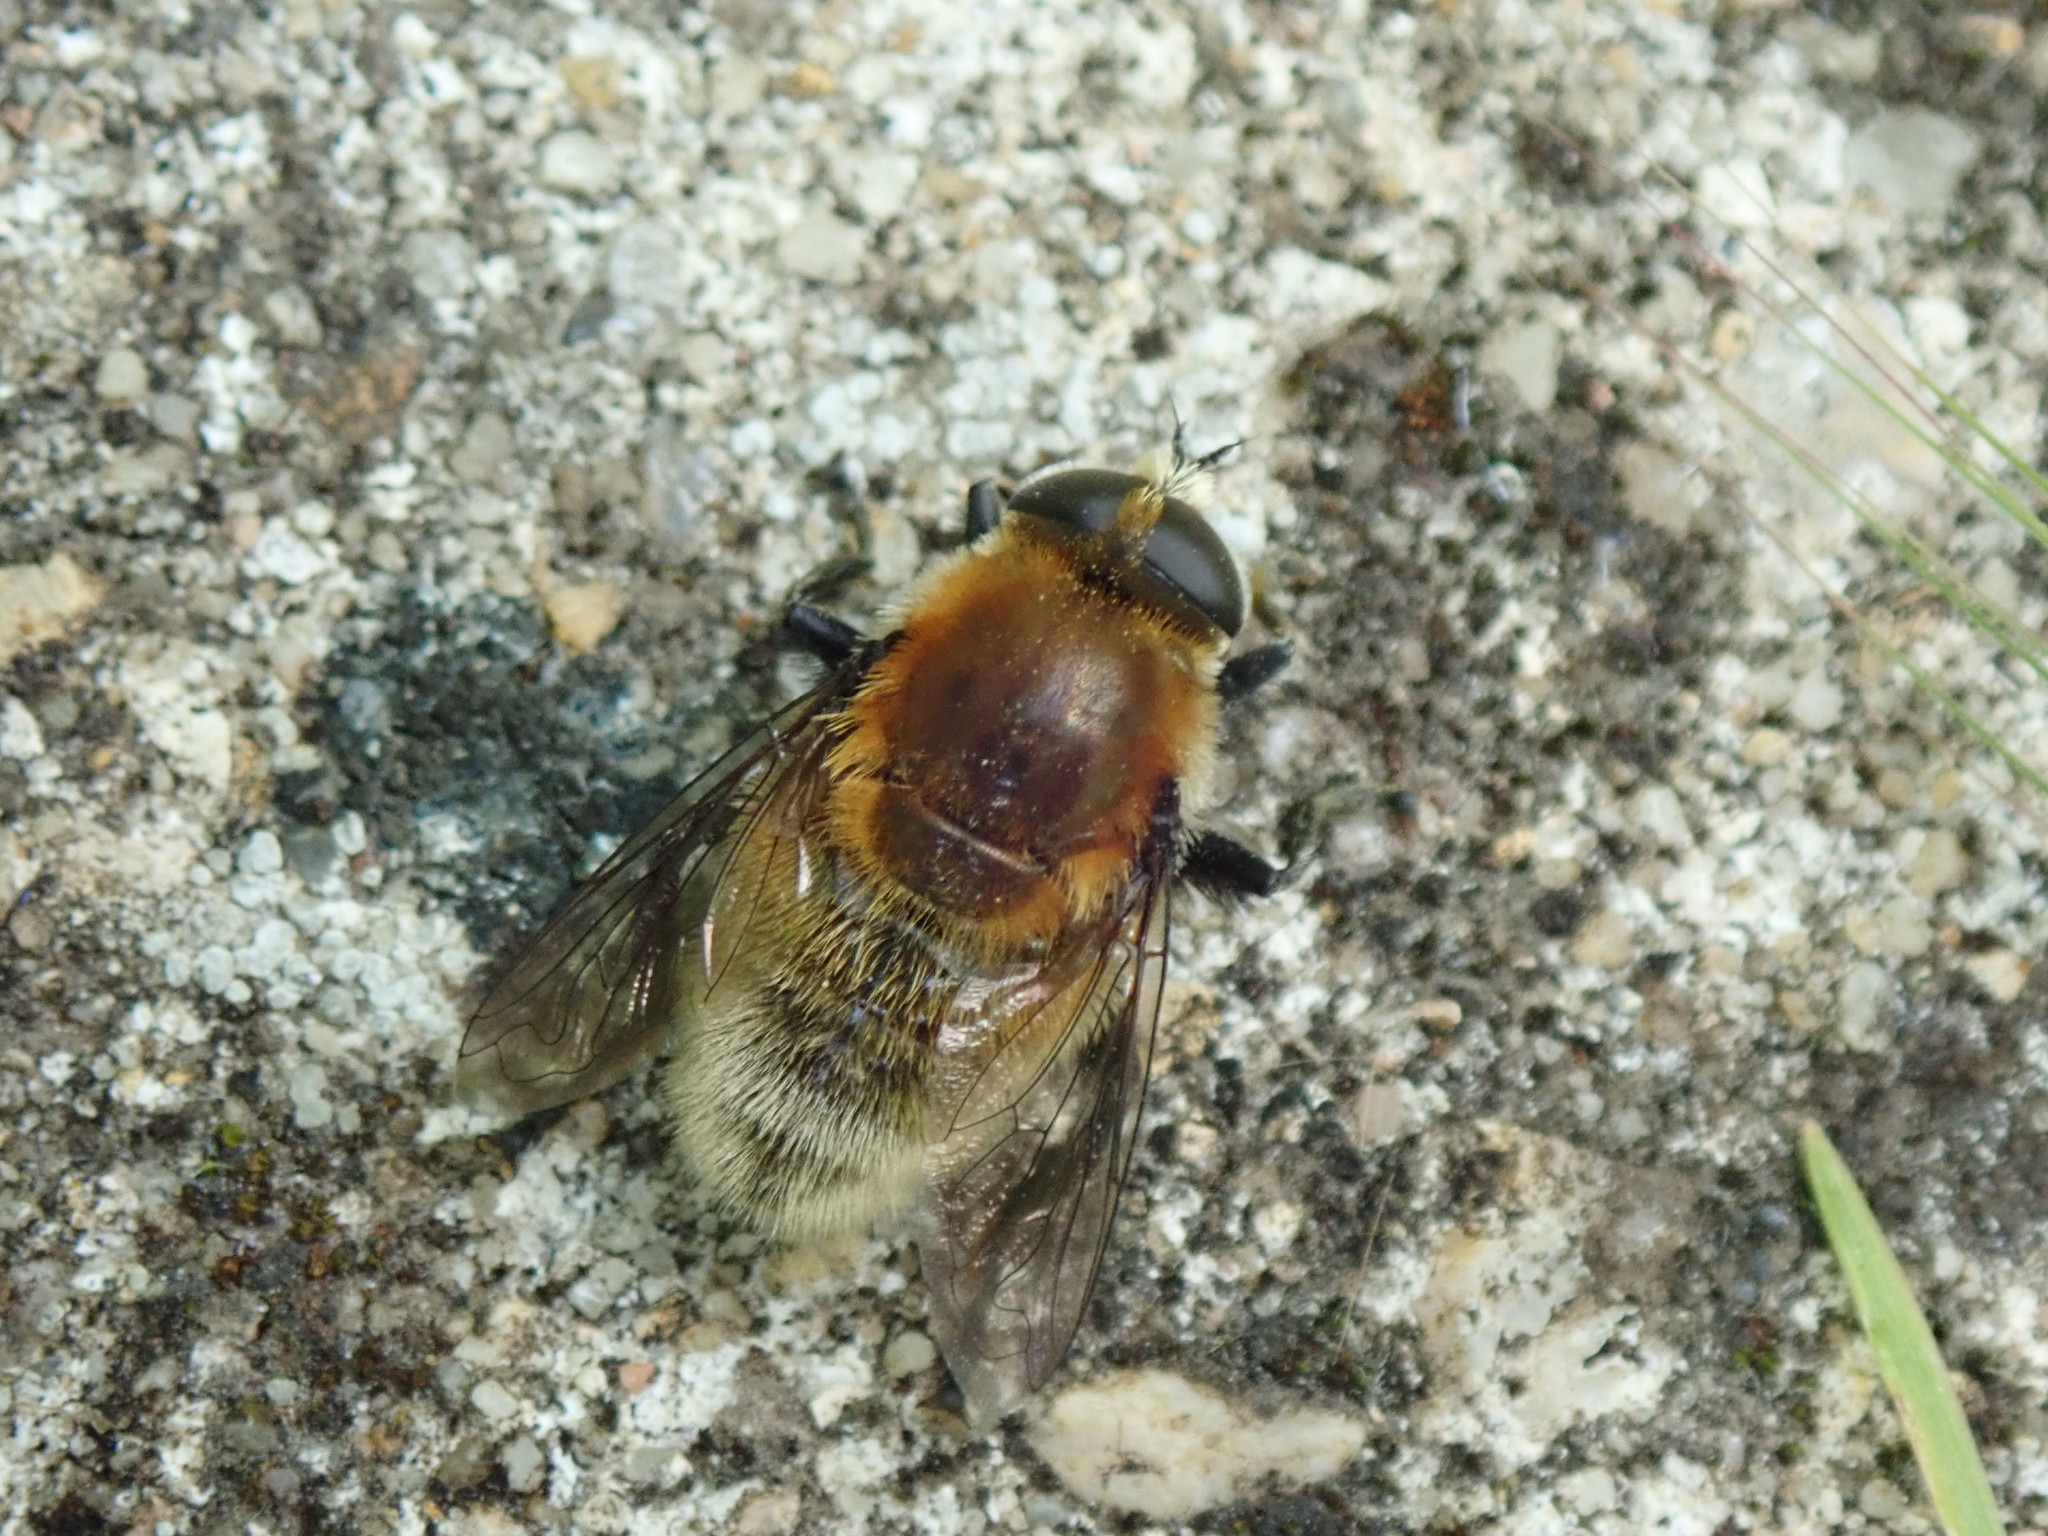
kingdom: Animalia
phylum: Arthropoda
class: Insecta
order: Diptera
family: Syrphidae
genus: Merodon
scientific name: Merodon equestris
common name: Greater bulb-fly
